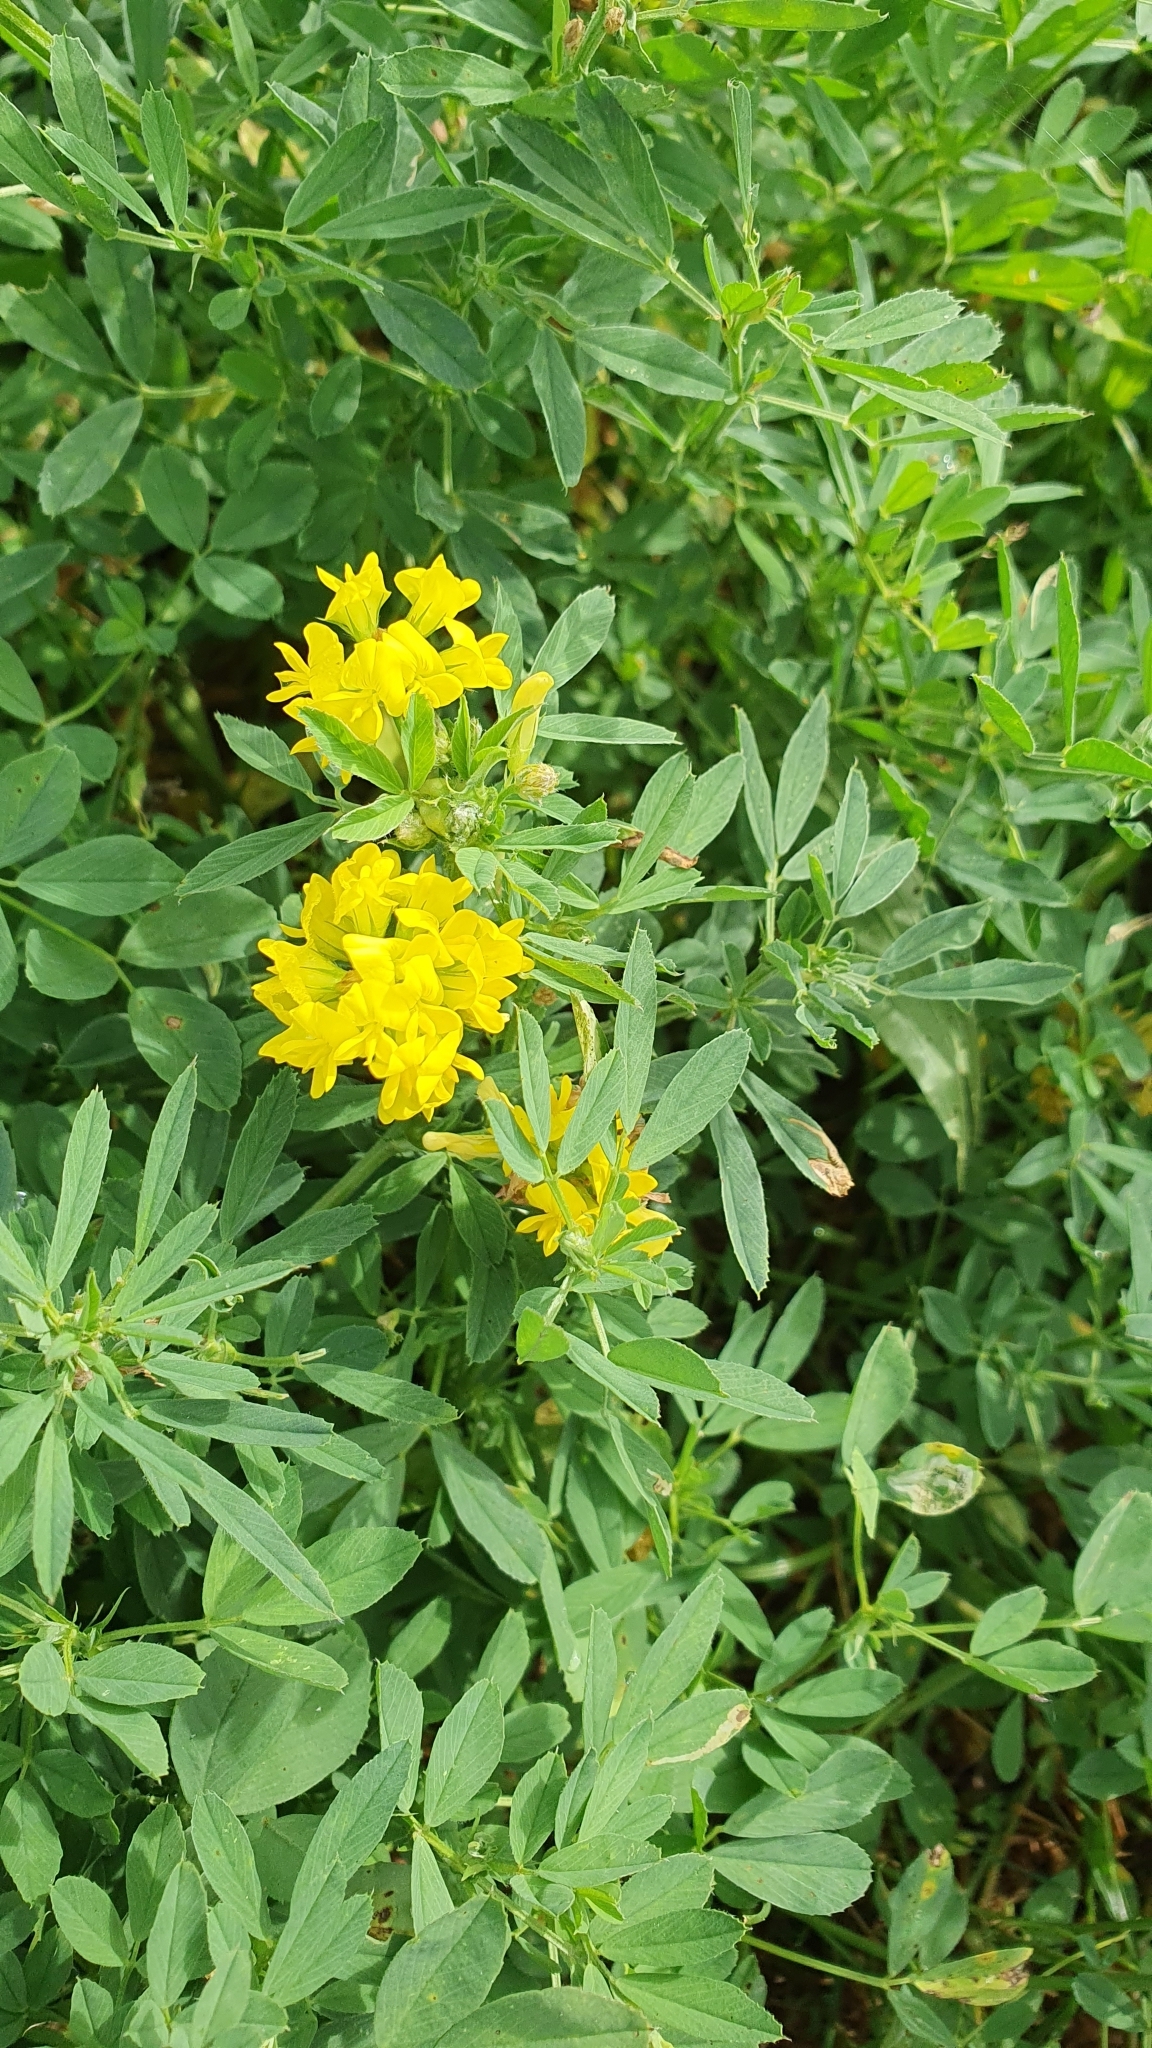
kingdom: Plantae
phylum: Tracheophyta
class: Magnoliopsida
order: Fabales
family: Fabaceae
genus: Medicago
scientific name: Medicago falcata
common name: Sickle medick
